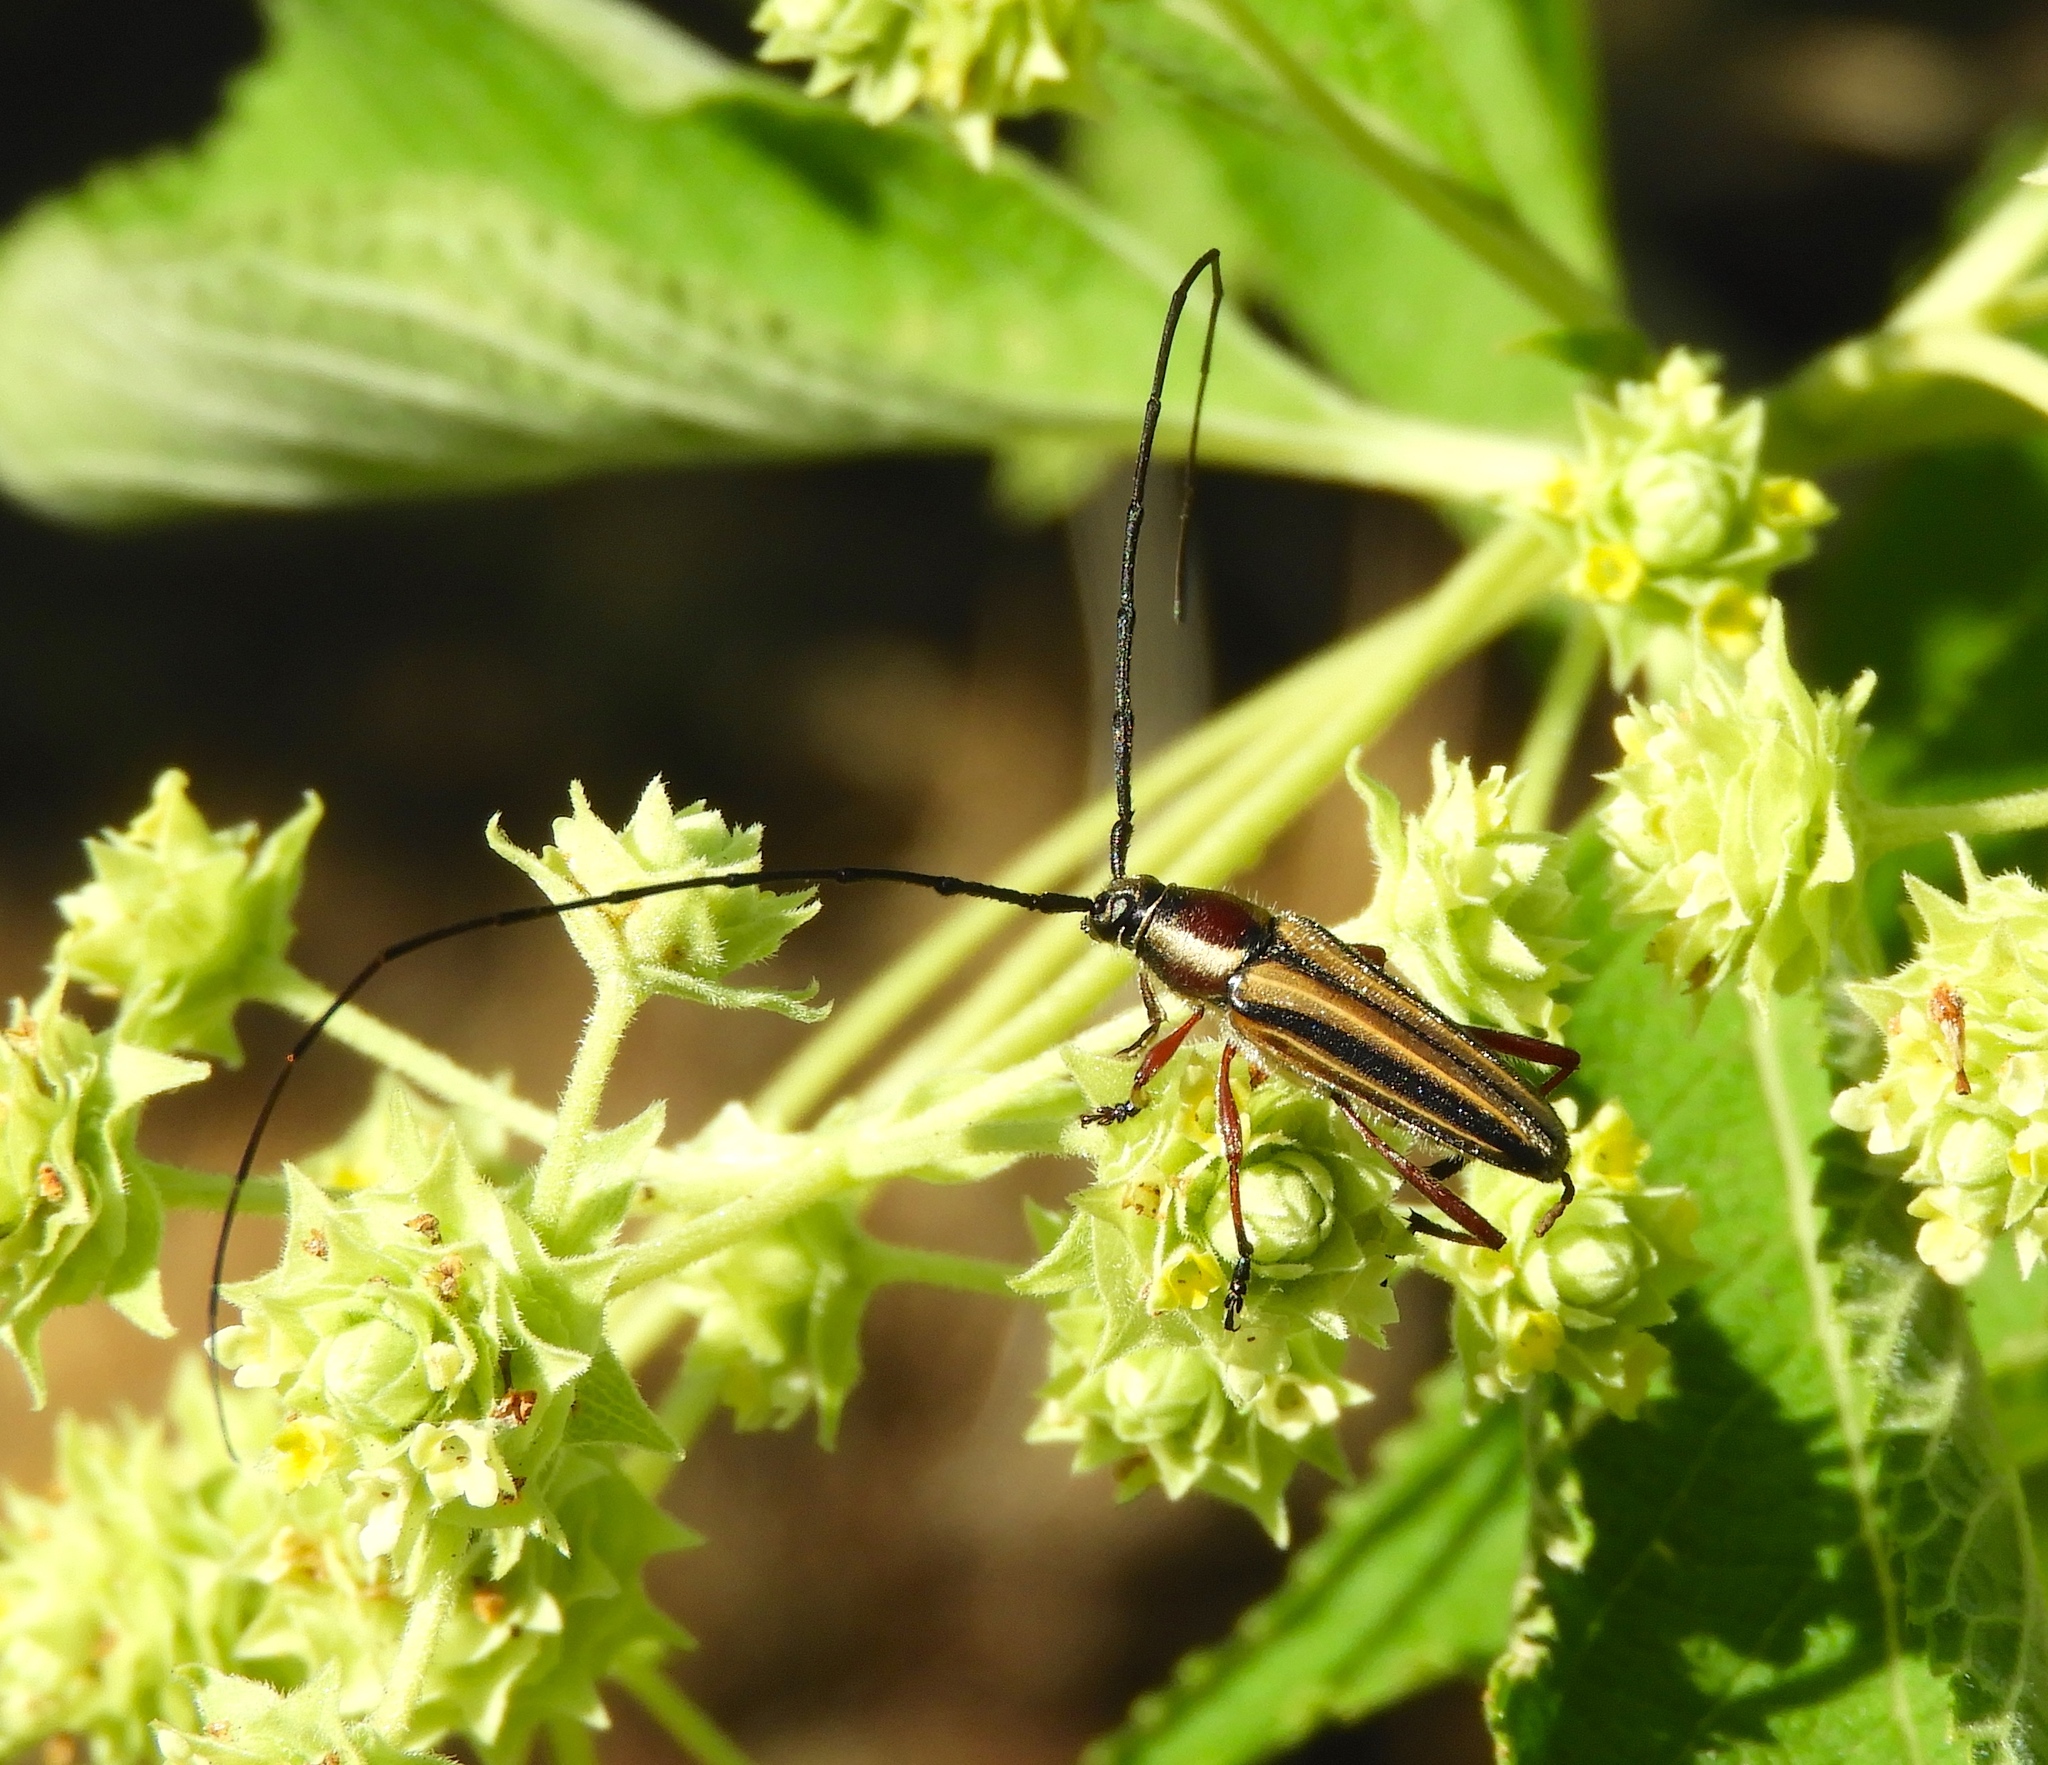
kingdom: Animalia
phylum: Arthropoda
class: Insecta
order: Coleoptera
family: Cerambycidae
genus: Sphaenothecus
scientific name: Sphaenothecus bilineatus
